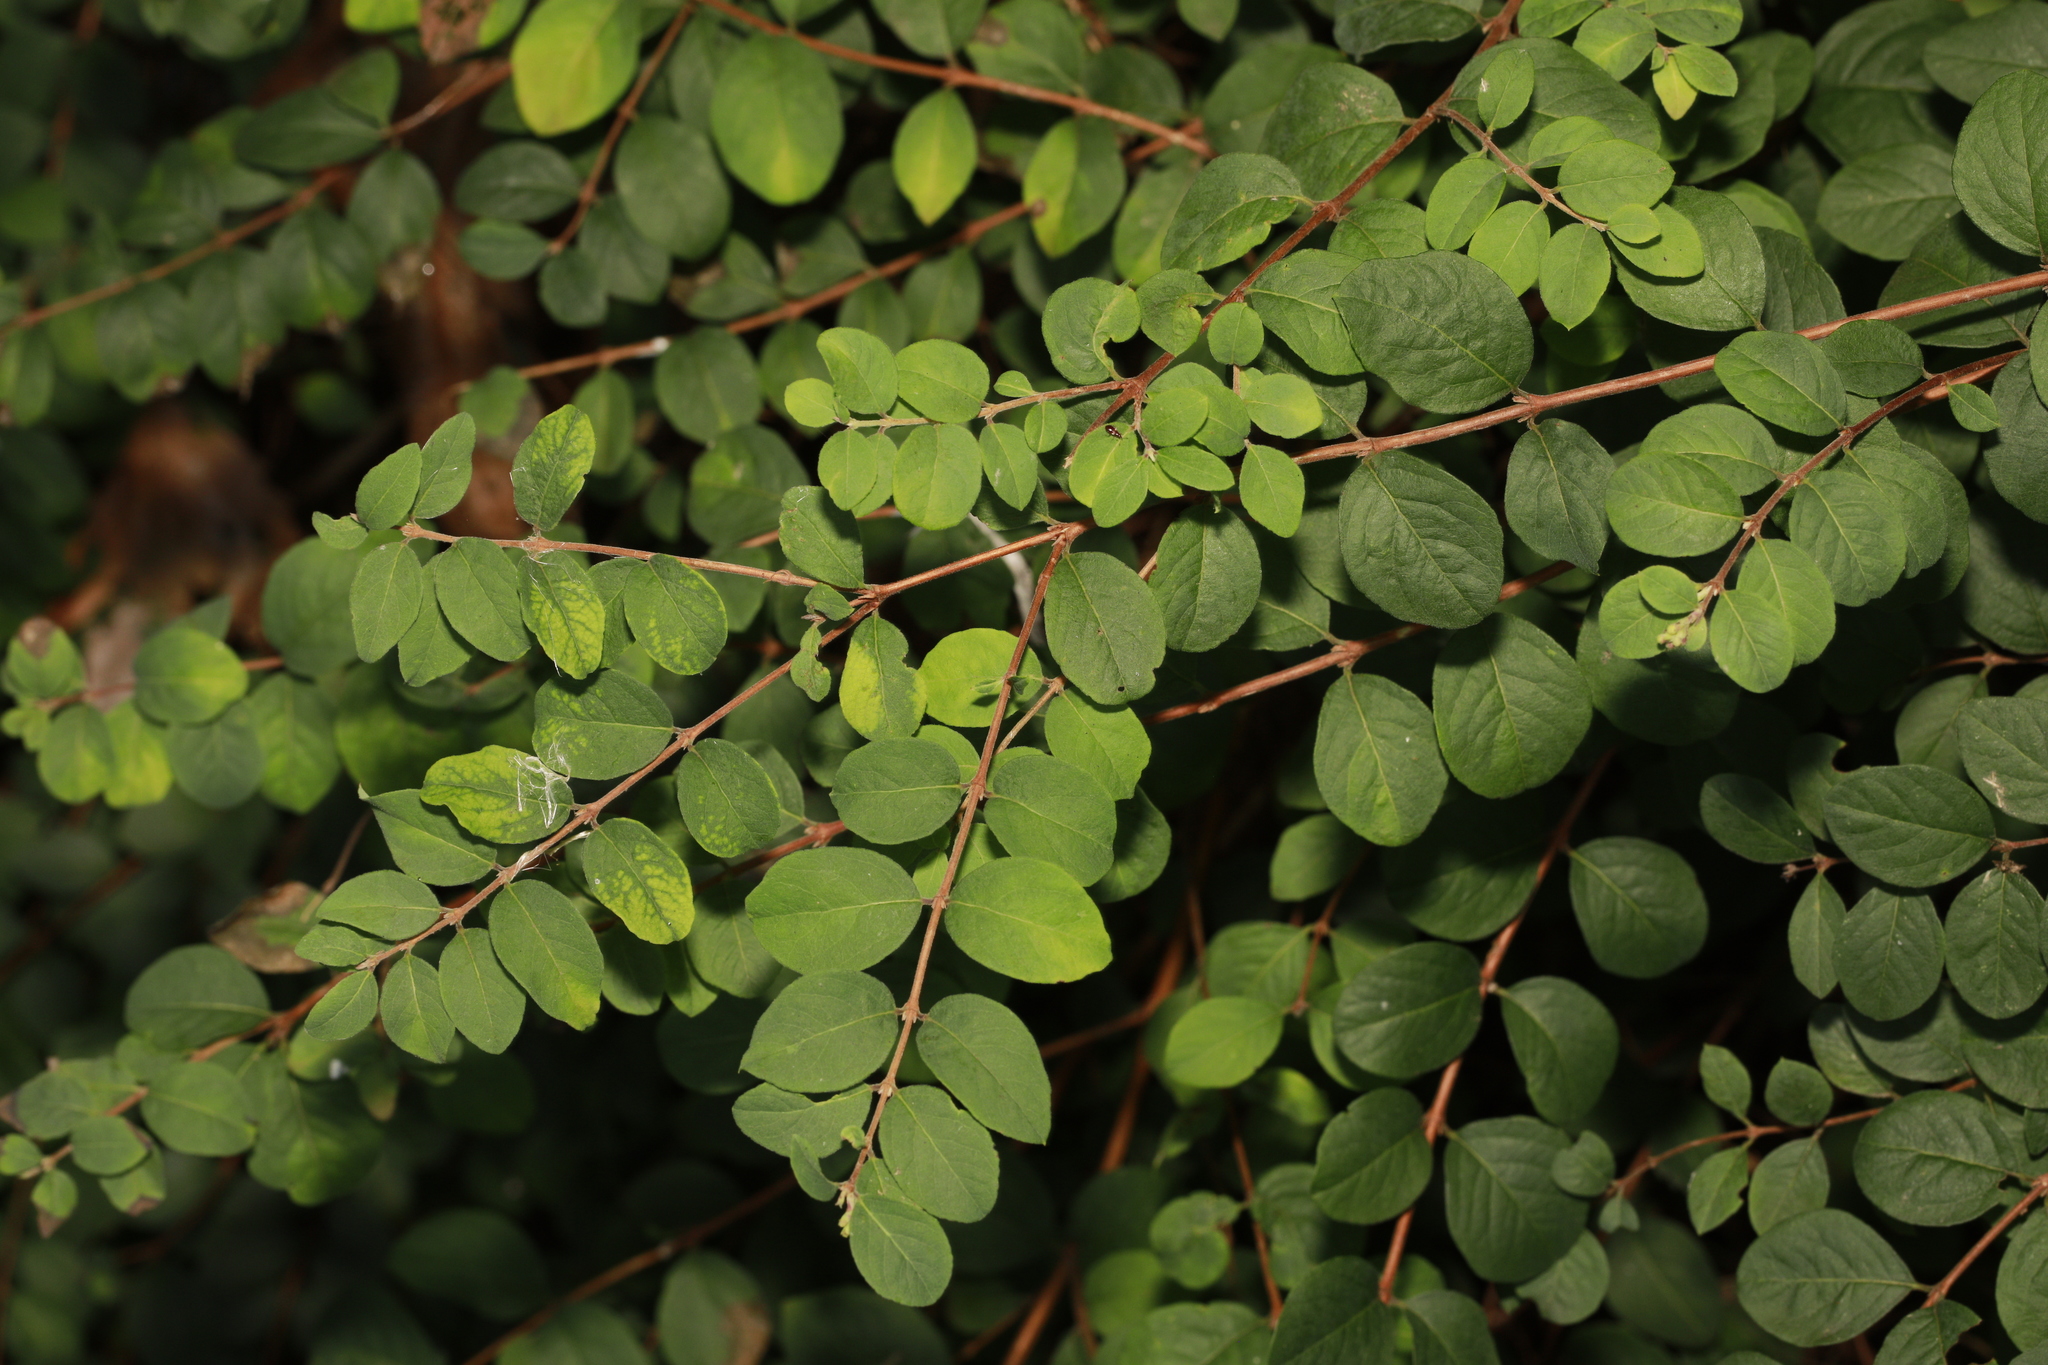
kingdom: Plantae
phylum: Tracheophyta
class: Magnoliopsida
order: Dipsacales
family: Caprifoliaceae
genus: Symphoricarpos
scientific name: Symphoricarpos chenaultii
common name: Hybrid coralberry
